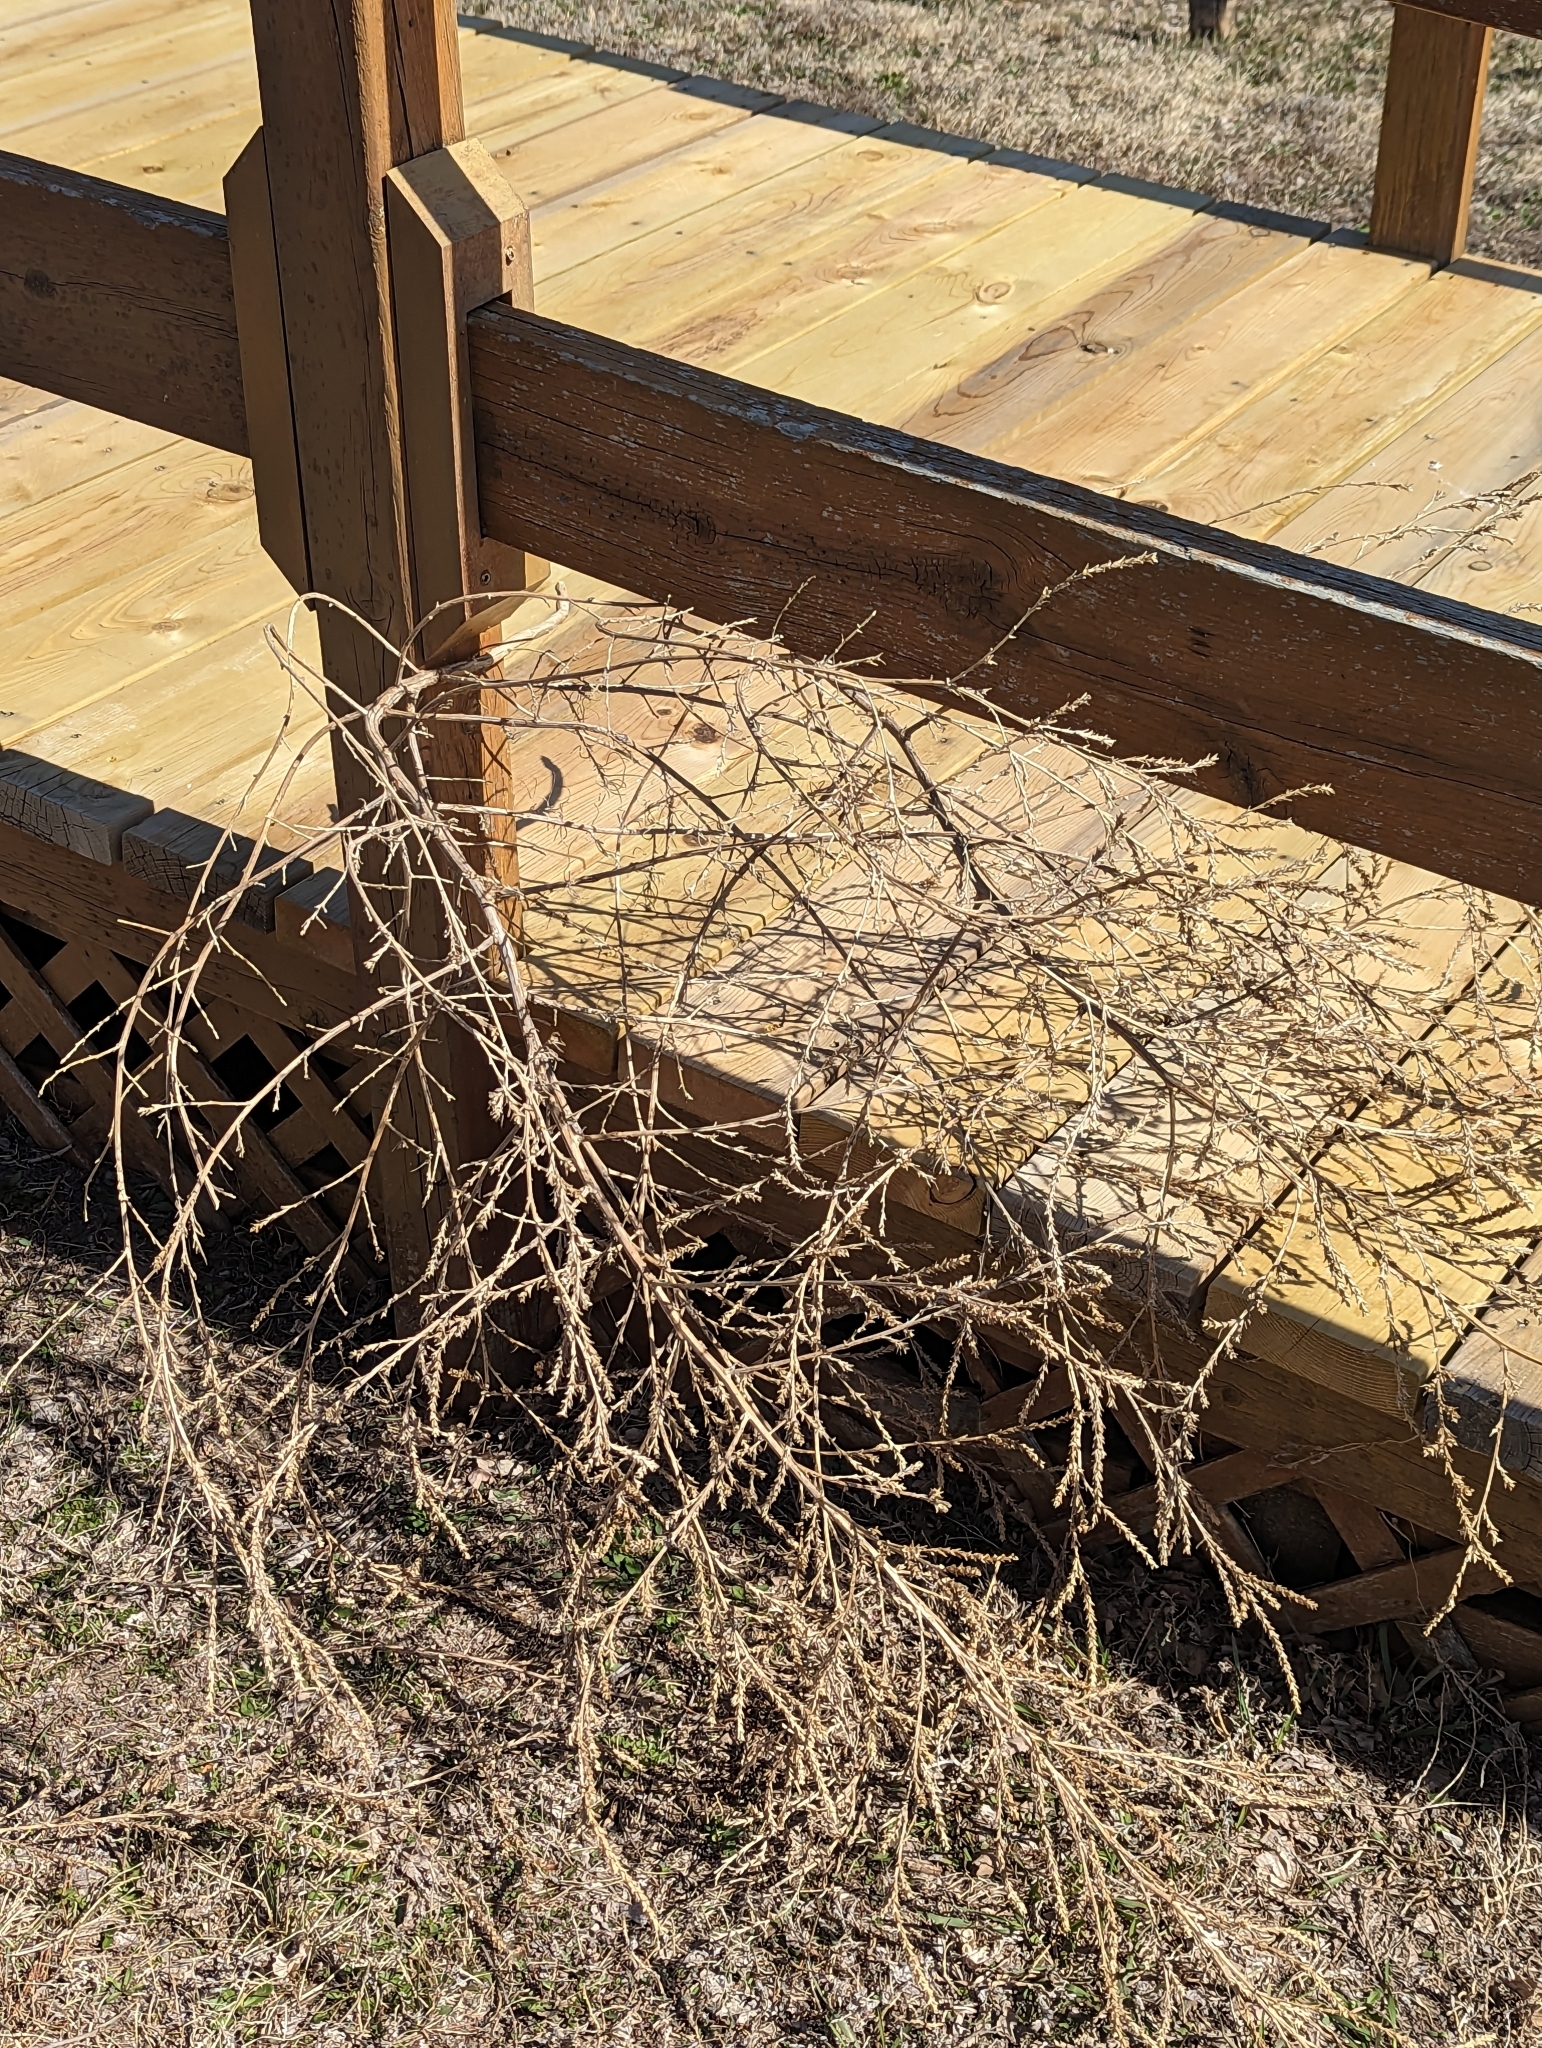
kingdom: Plantae
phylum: Tracheophyta
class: Magnoliopsida
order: Caryophyllales
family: Amaranthaceae
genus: Salsola
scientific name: Salsola tragus
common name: Prickly russian thistle
